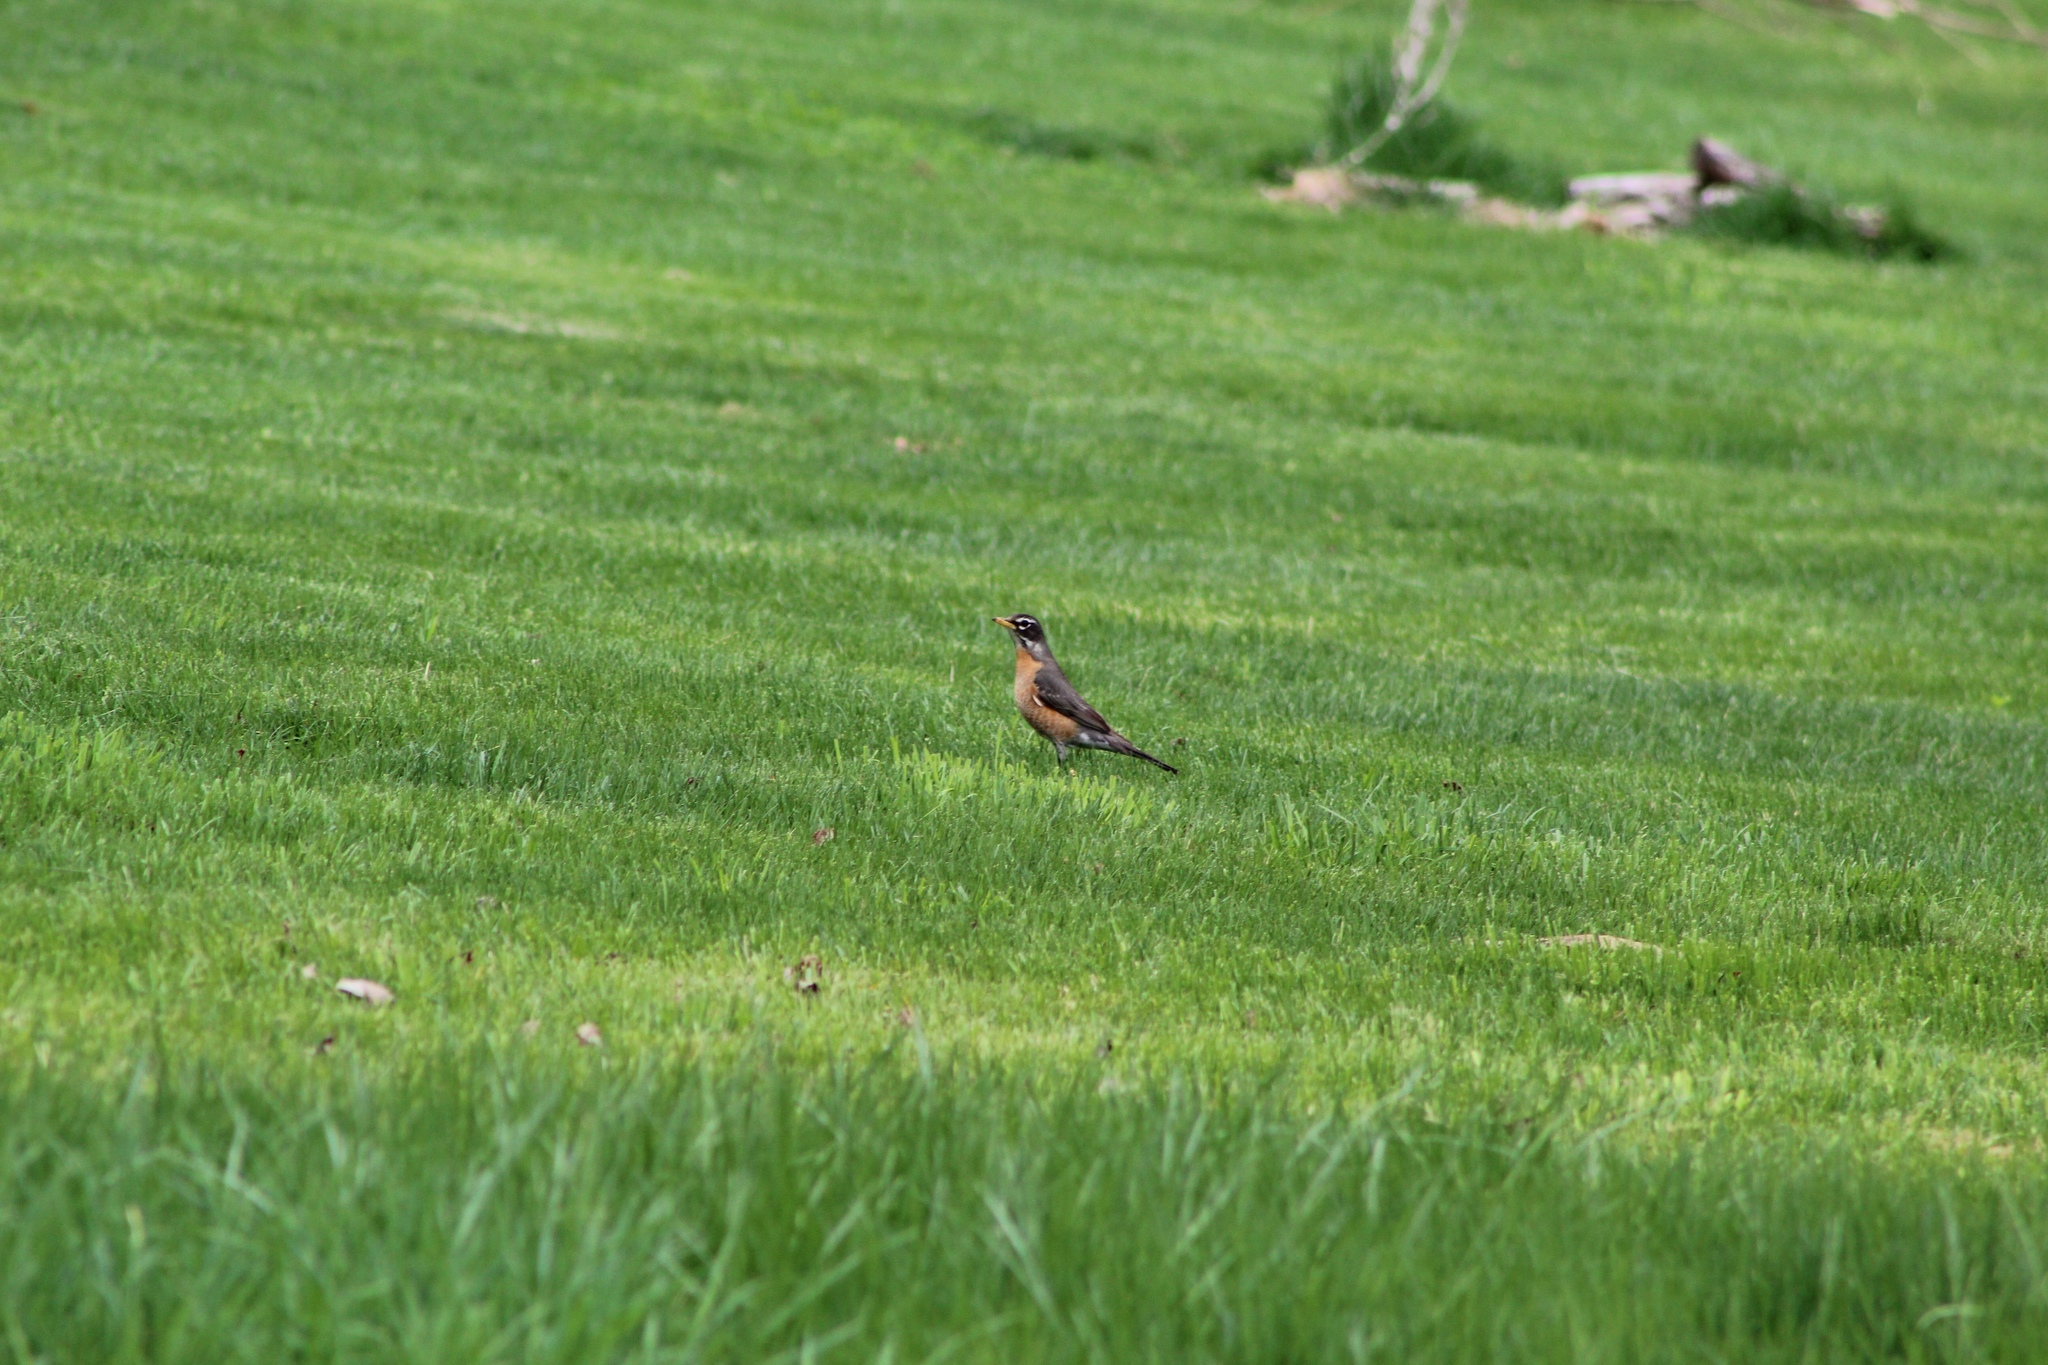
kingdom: Animalia
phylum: Chordata
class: Aves
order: Passeriformes
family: Turdidae
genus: Turdus
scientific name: Turdus migratorius
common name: American robin
